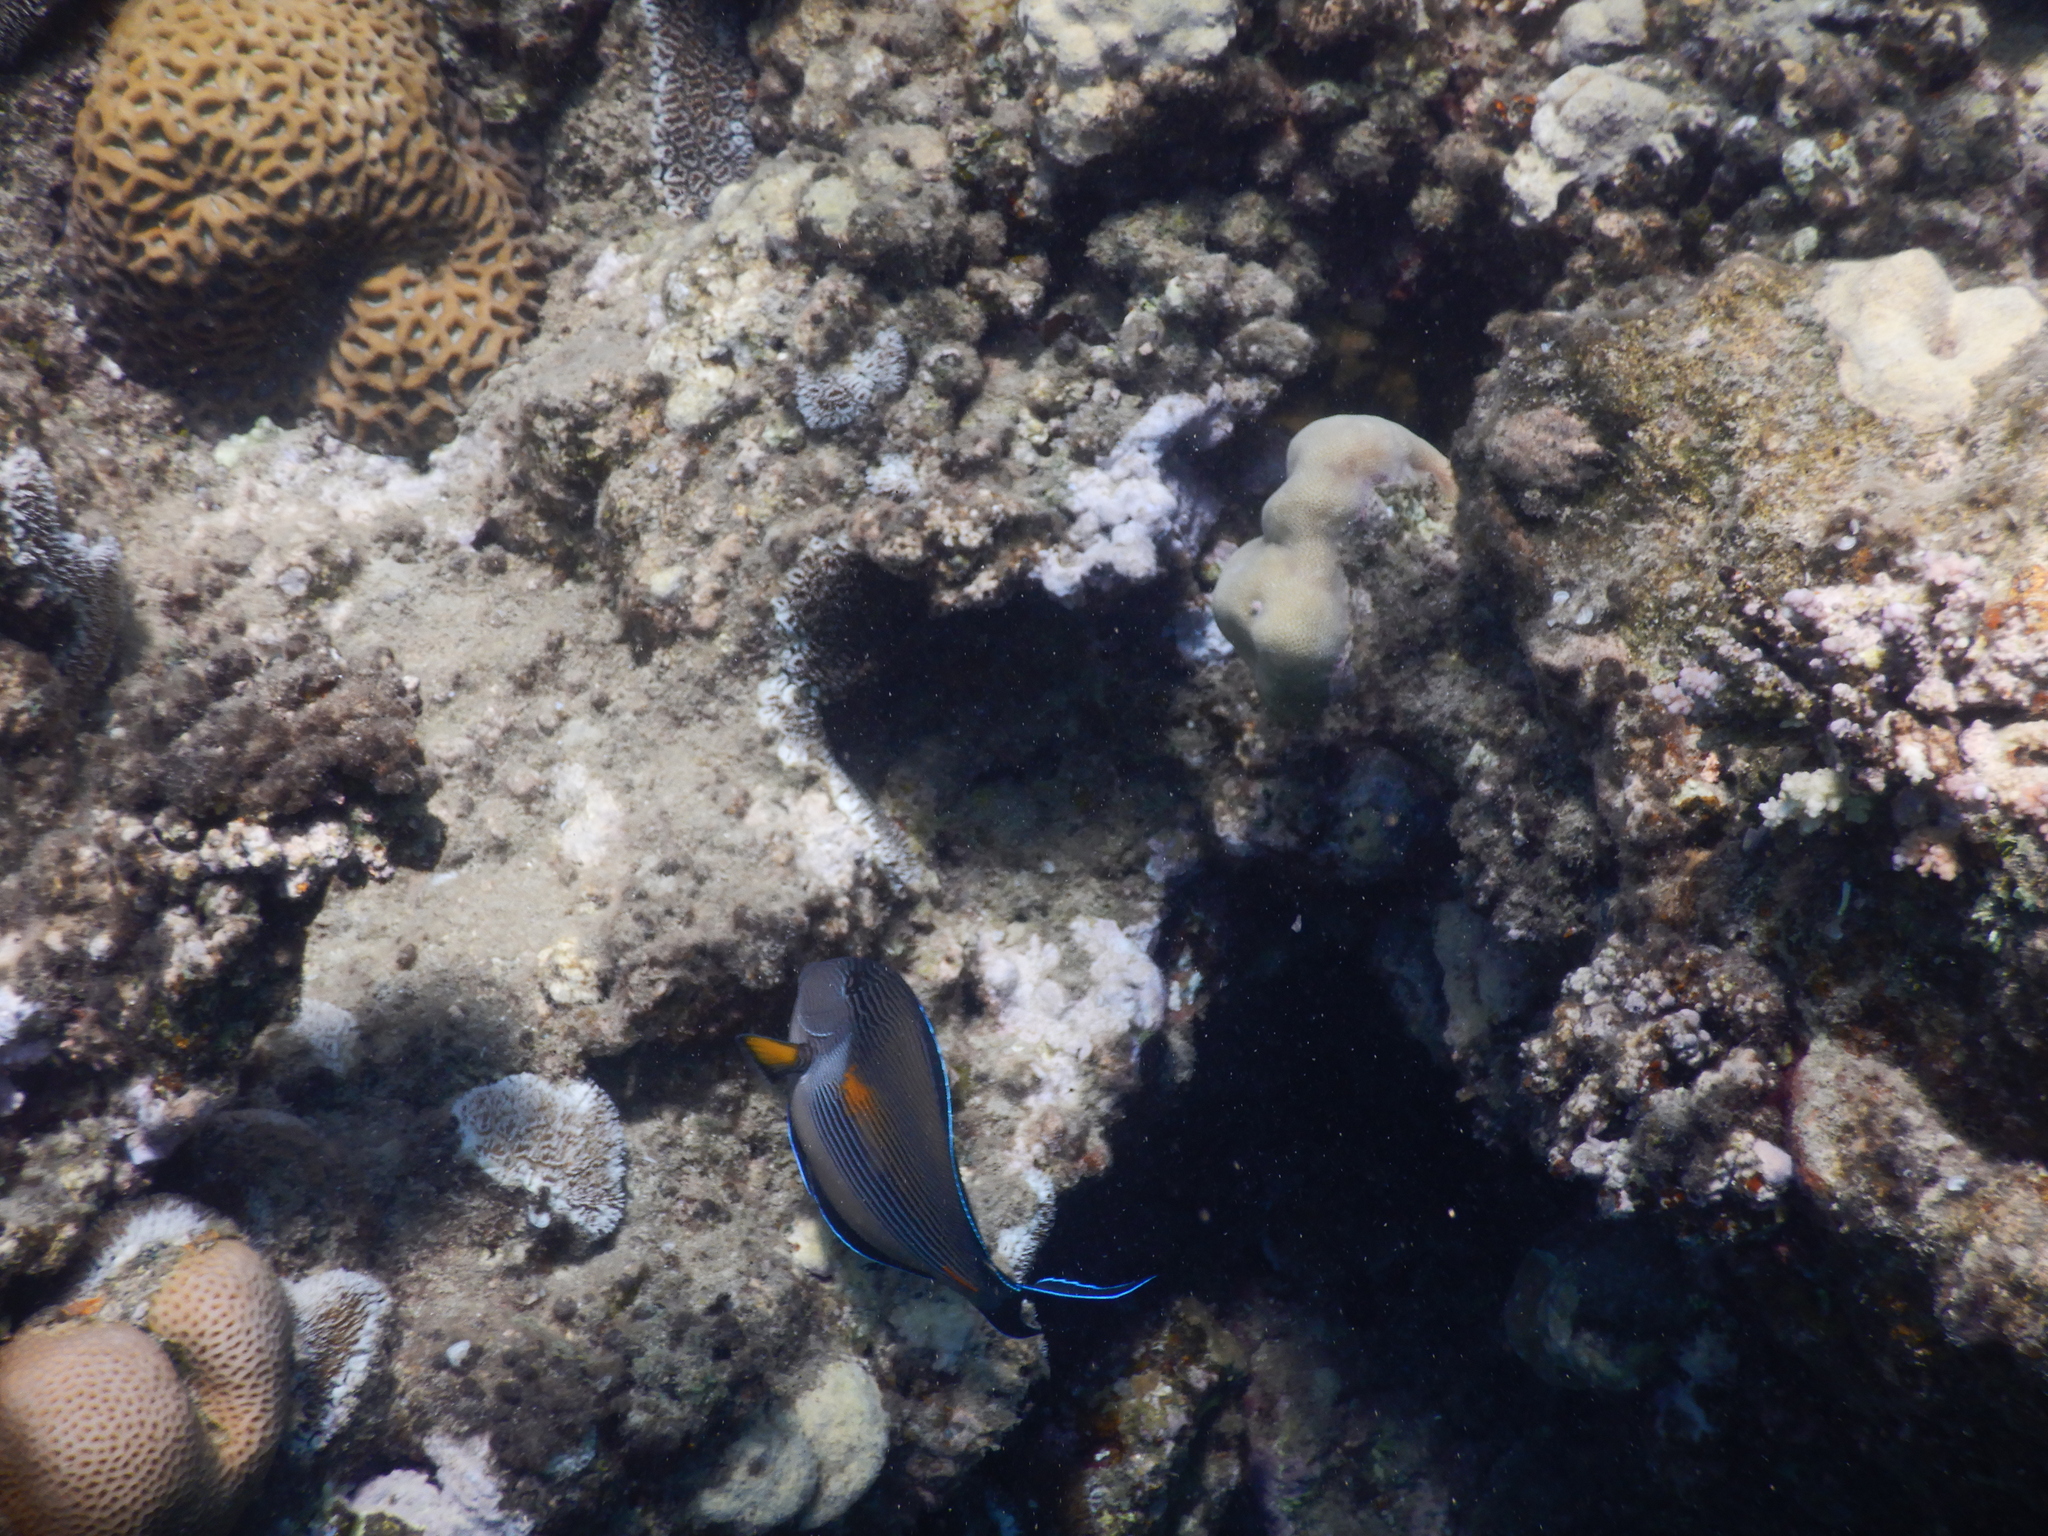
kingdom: Animalia
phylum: Chordata
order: Perciformes
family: Acanthuridae
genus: Acanthurus
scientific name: Acanthurus sohal
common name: Red sea surgeonfish
